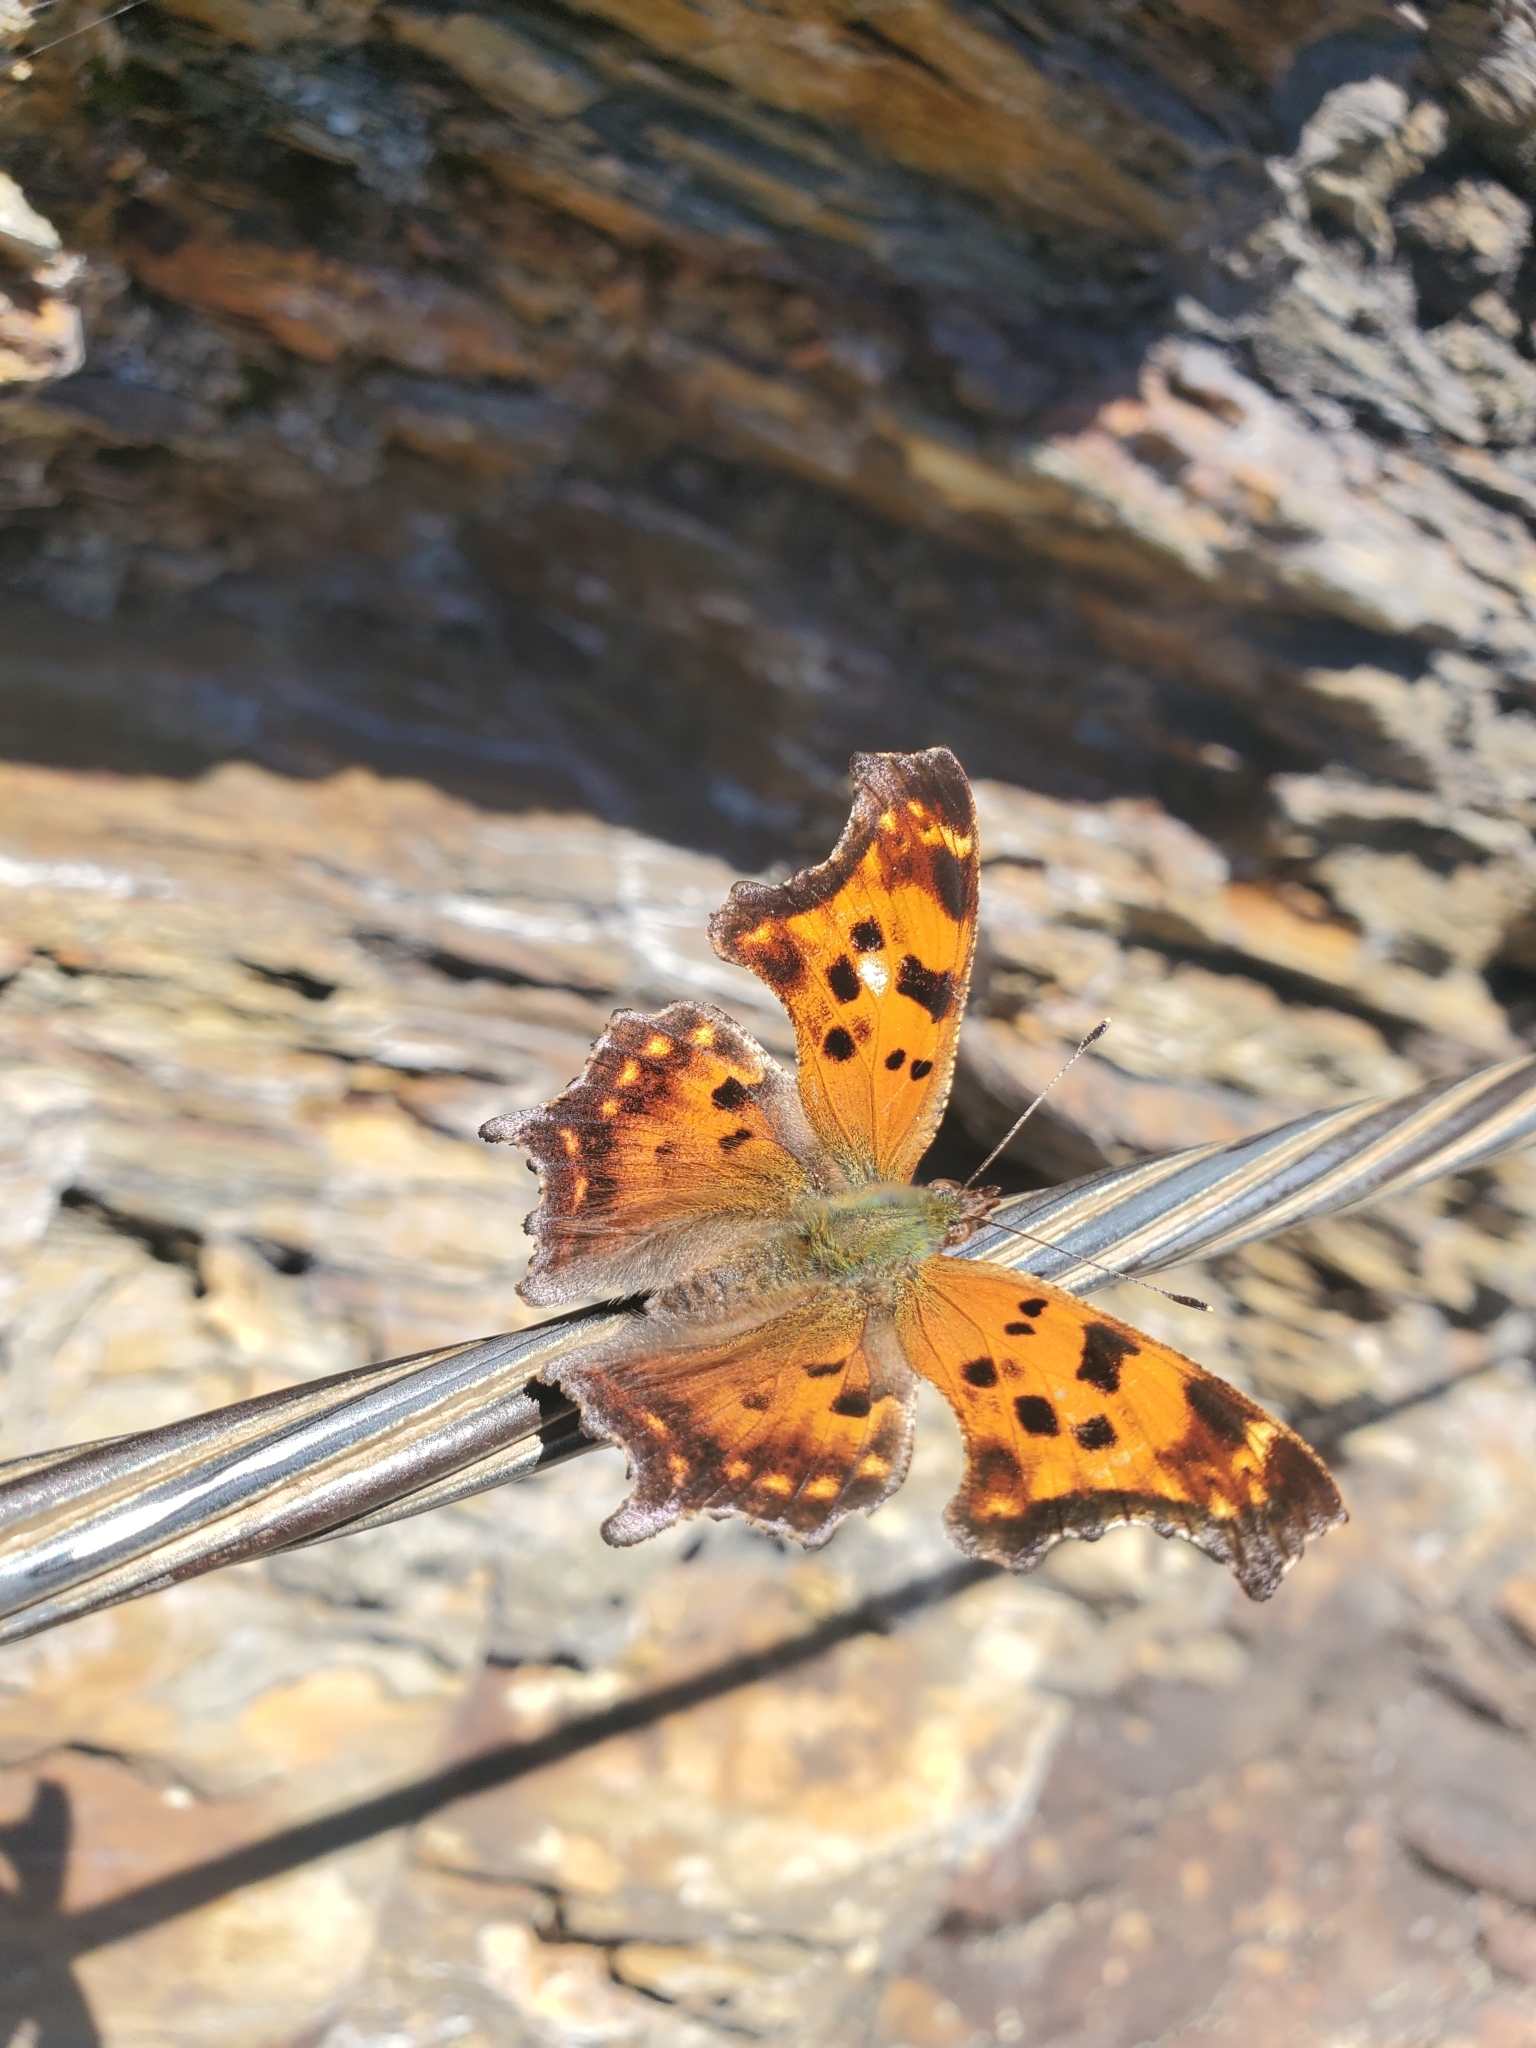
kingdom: Animalia
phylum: Arthropoda
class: Insecta
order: Lepidoptera
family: Nymphalidae
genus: Polygonia
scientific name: Polygonia comma
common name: Eastern comma
